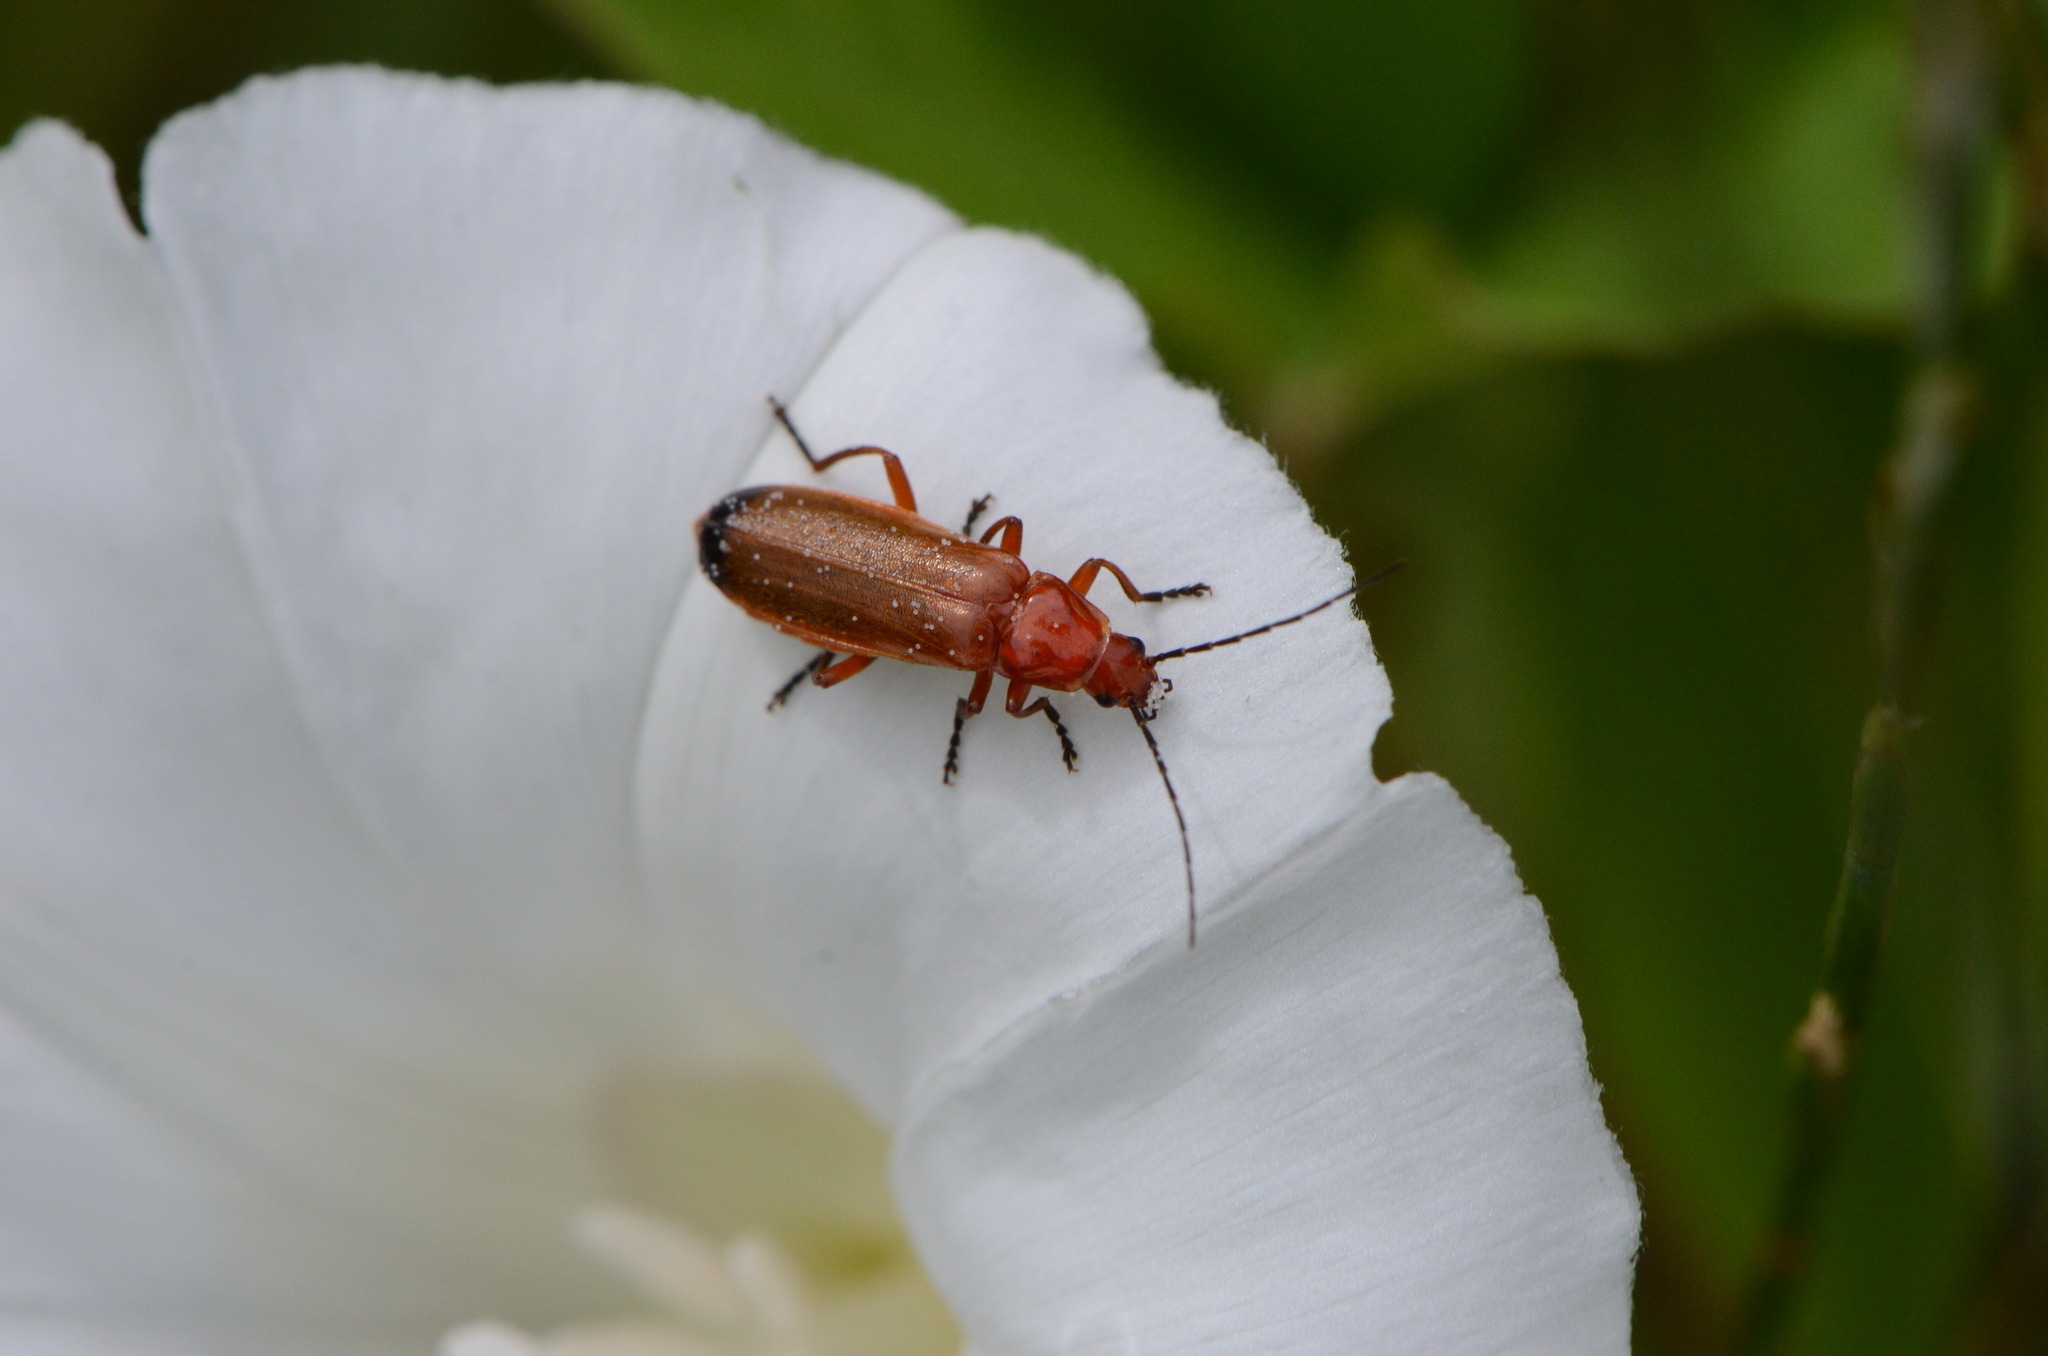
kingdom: Animalia
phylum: Arthropoda
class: Insecta
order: Coleoptera
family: Cantharidae
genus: Rhagonycha
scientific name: Rhagonycha fulva
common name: Common red soldier beetle
